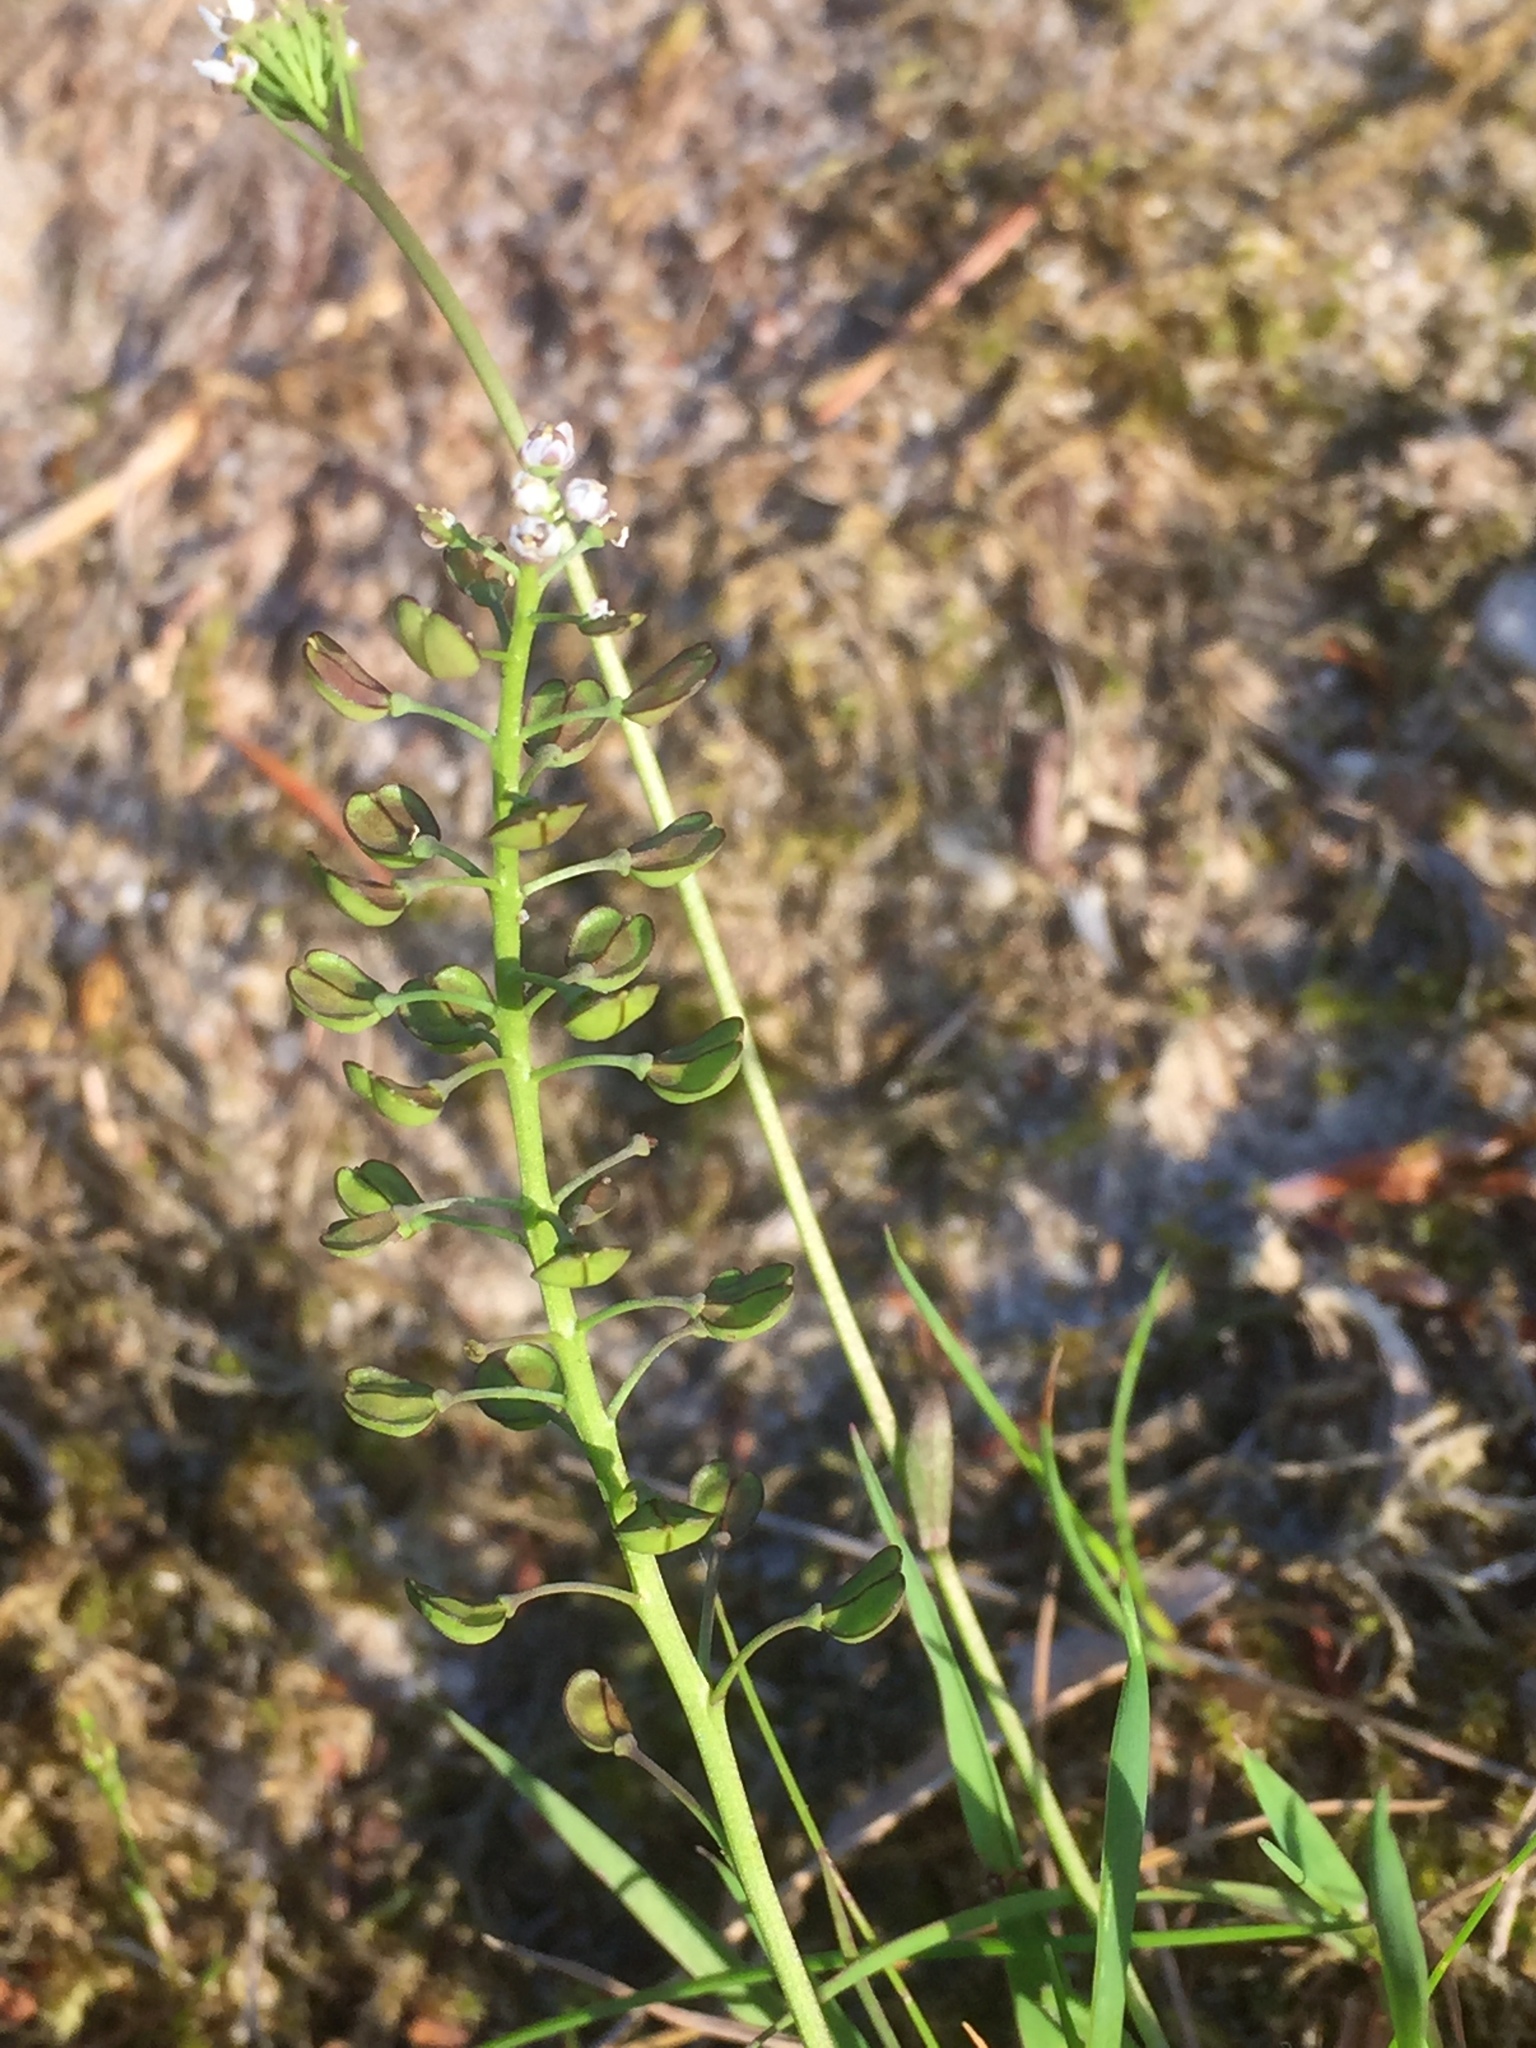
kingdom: Plantae
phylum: Tracheophyta
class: Magnoliopsida
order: Brassicales
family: Brassicaceae
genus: Teesdalia
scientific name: Teesdalia nudicaulis
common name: Shepherd's cress
